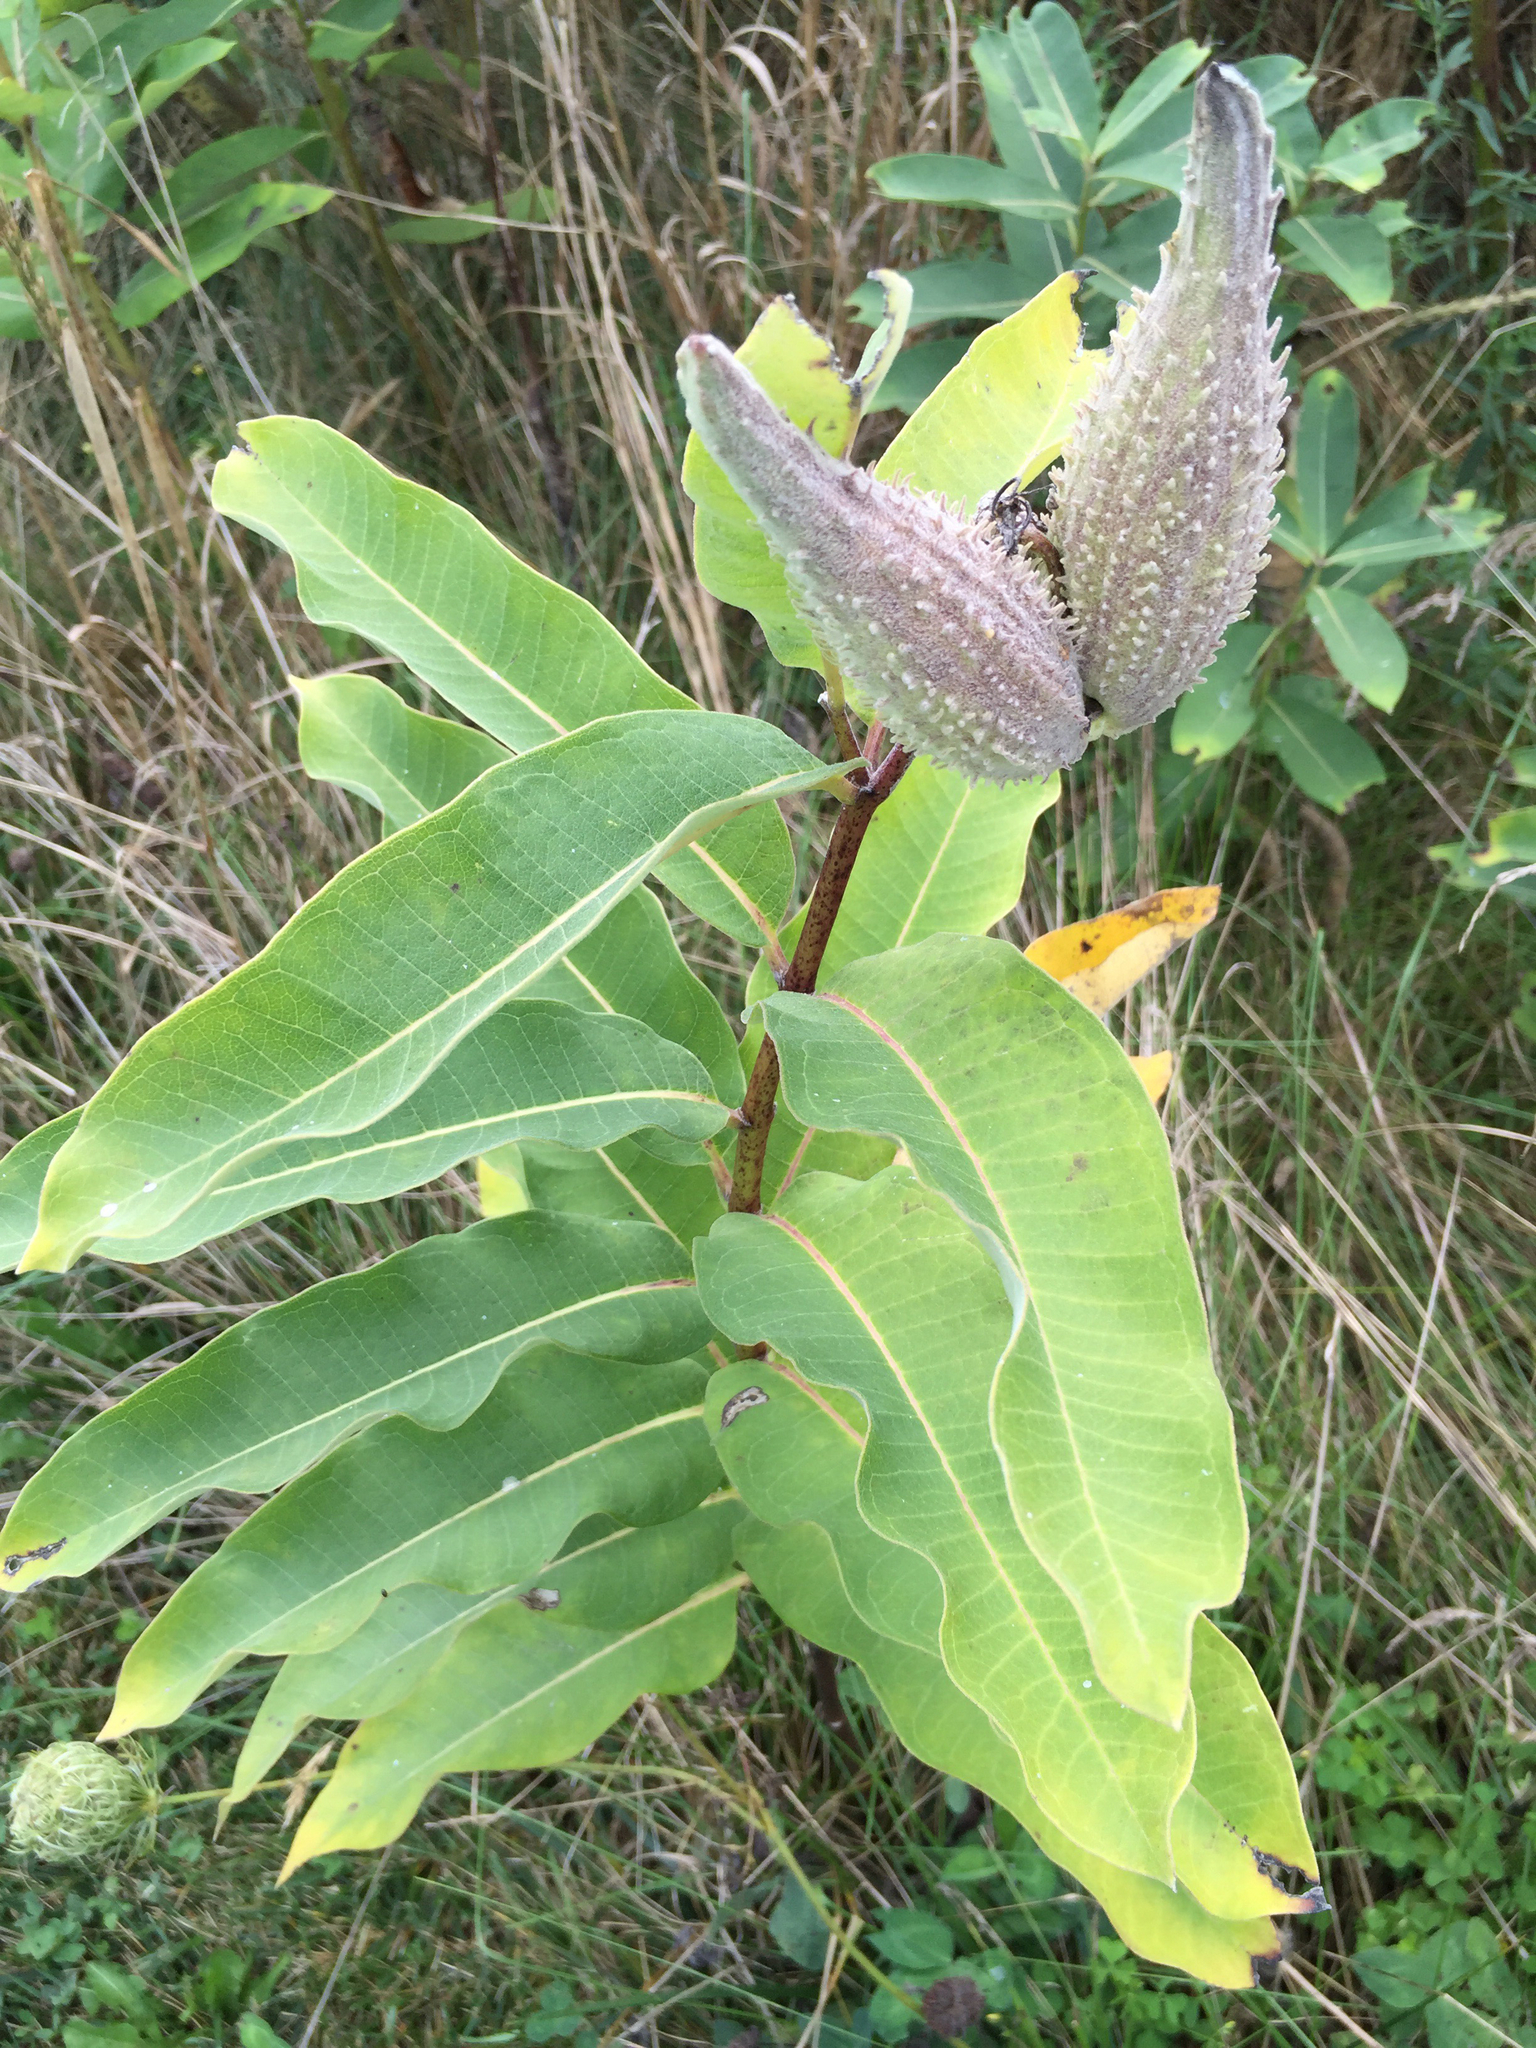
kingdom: Plantae
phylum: Tracheophyta
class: Magnoliopsida
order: Gentianales
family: Apocynaceae
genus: Asclepias
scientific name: Asclepias syriaca
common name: Common milkweed
